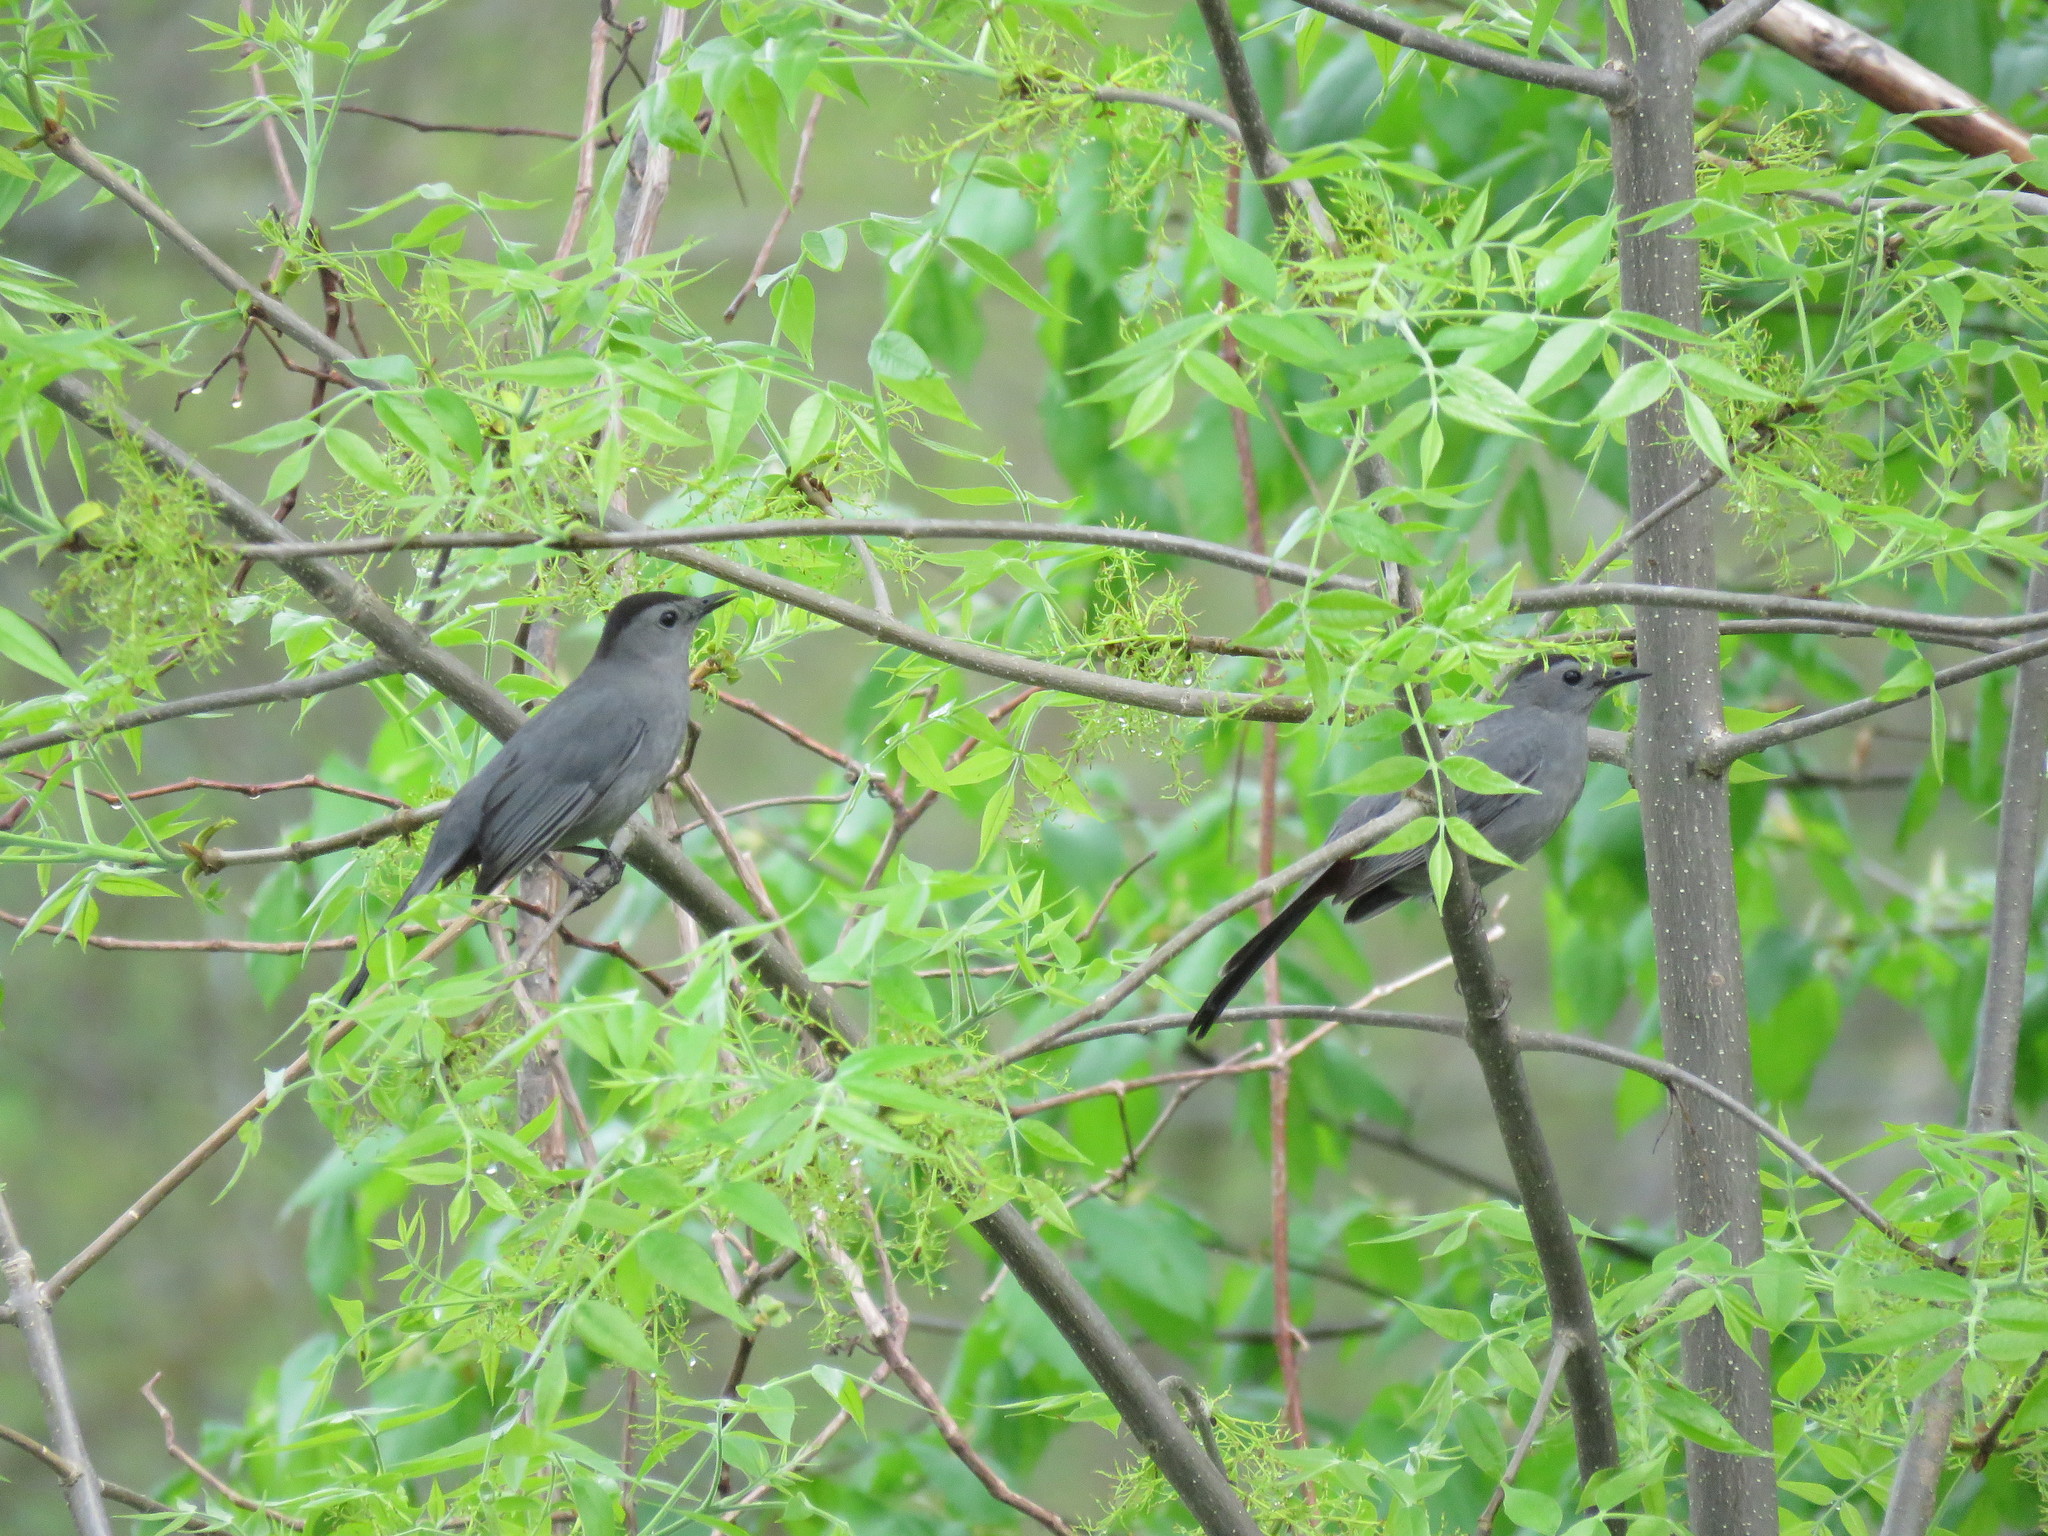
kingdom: Animalia
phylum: Chordata
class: Aves
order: Passeriformes
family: Mimidae
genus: Dumetella
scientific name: Dumetella carolinensis
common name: Gray catbird
